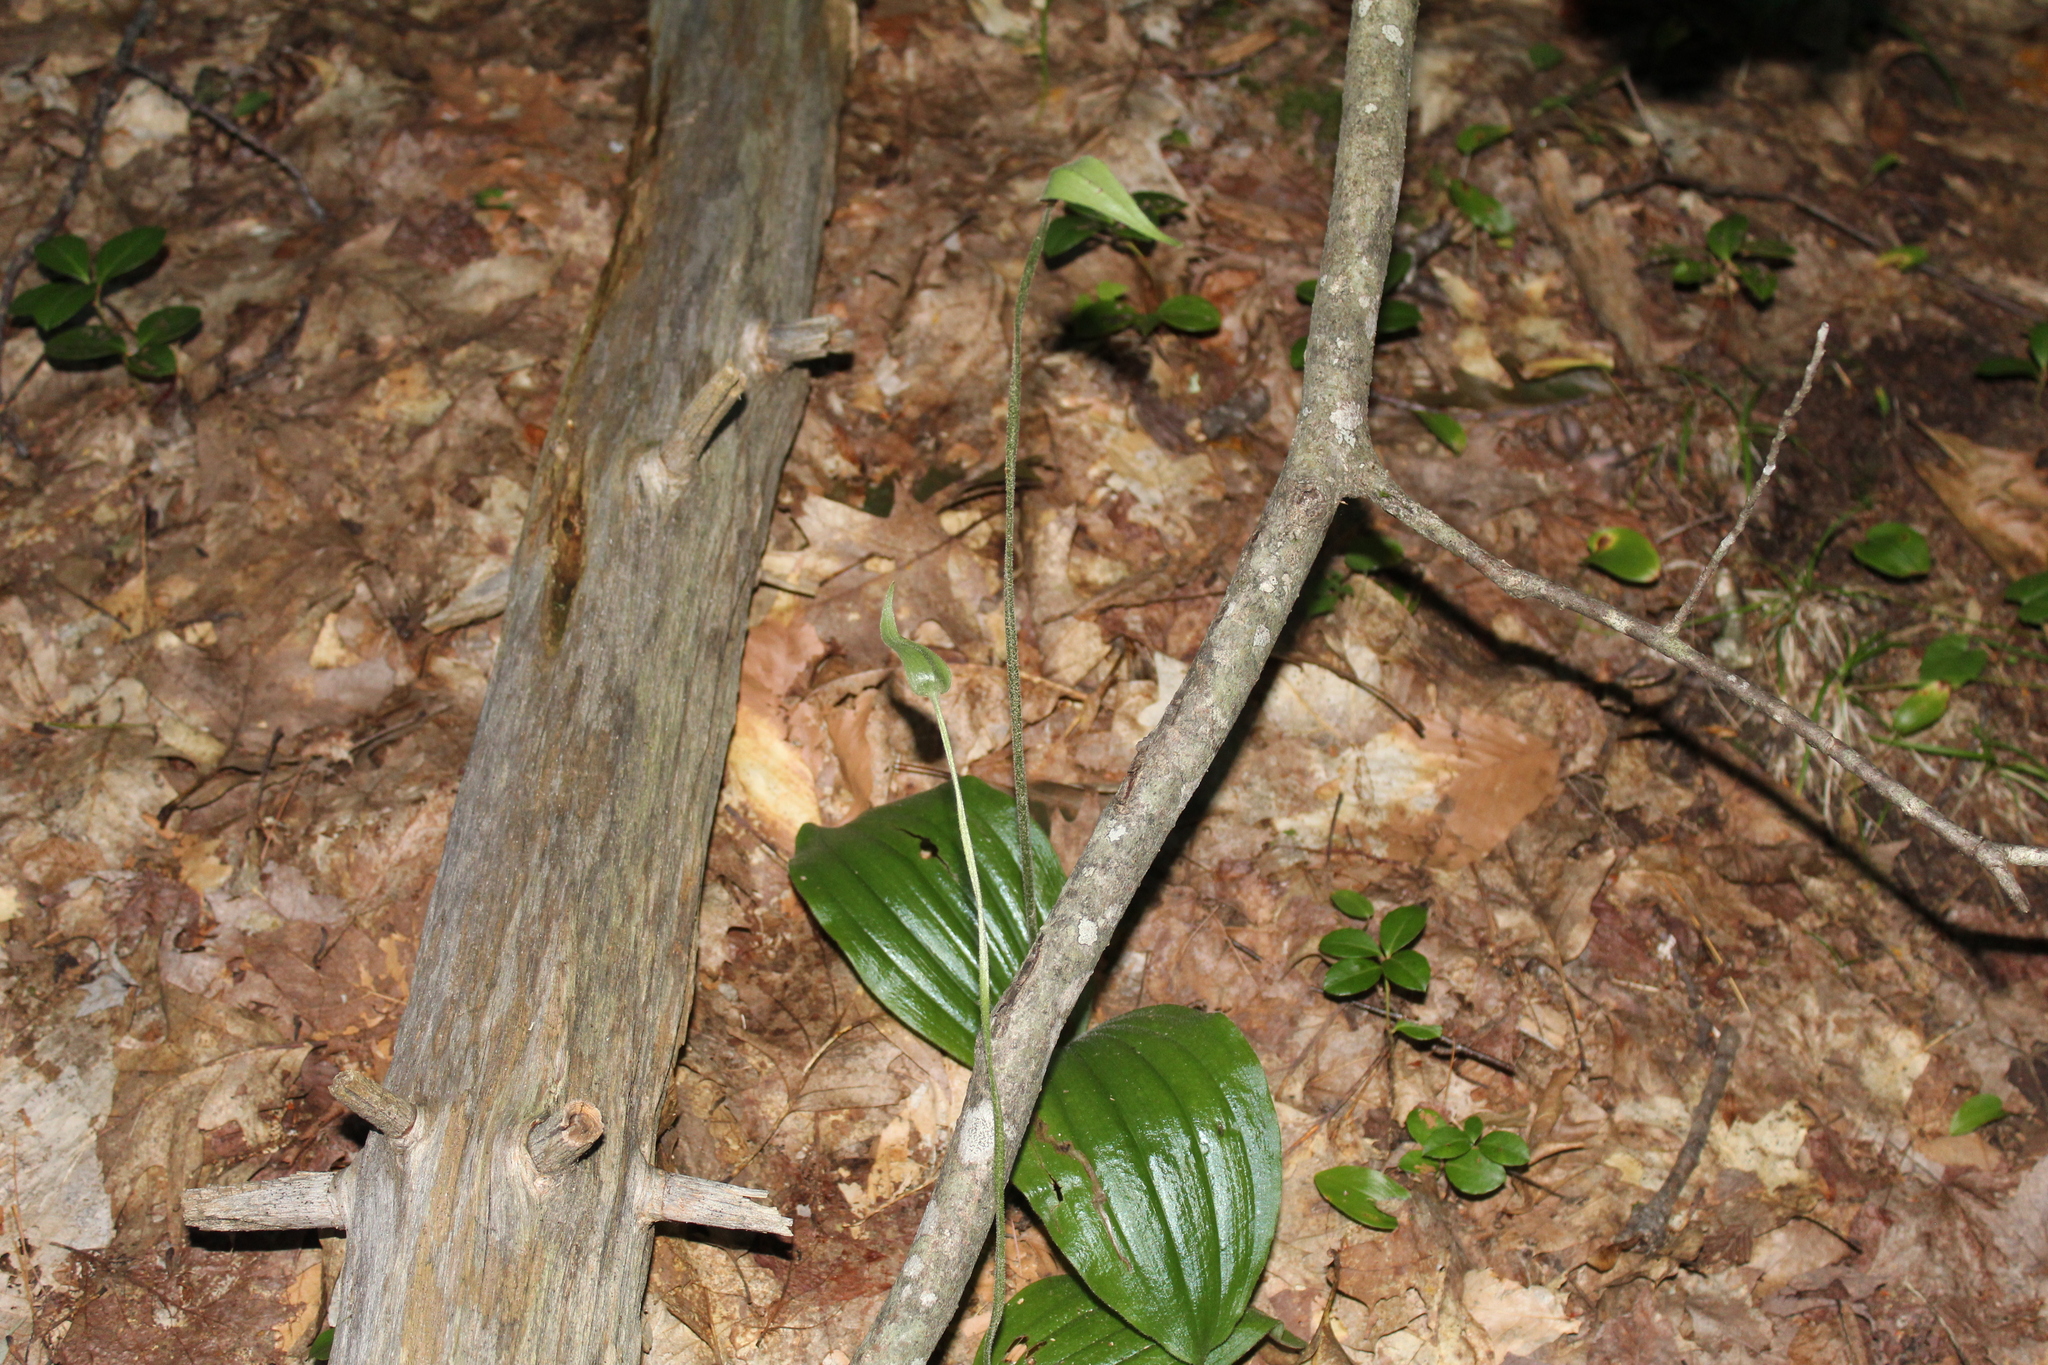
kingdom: Plantae
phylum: Tracheophyta
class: Liliopsida
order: Asparagales
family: Orchidaceae
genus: Cypripedium
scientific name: Cypripedium acaule
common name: Pink lady's-slipper
